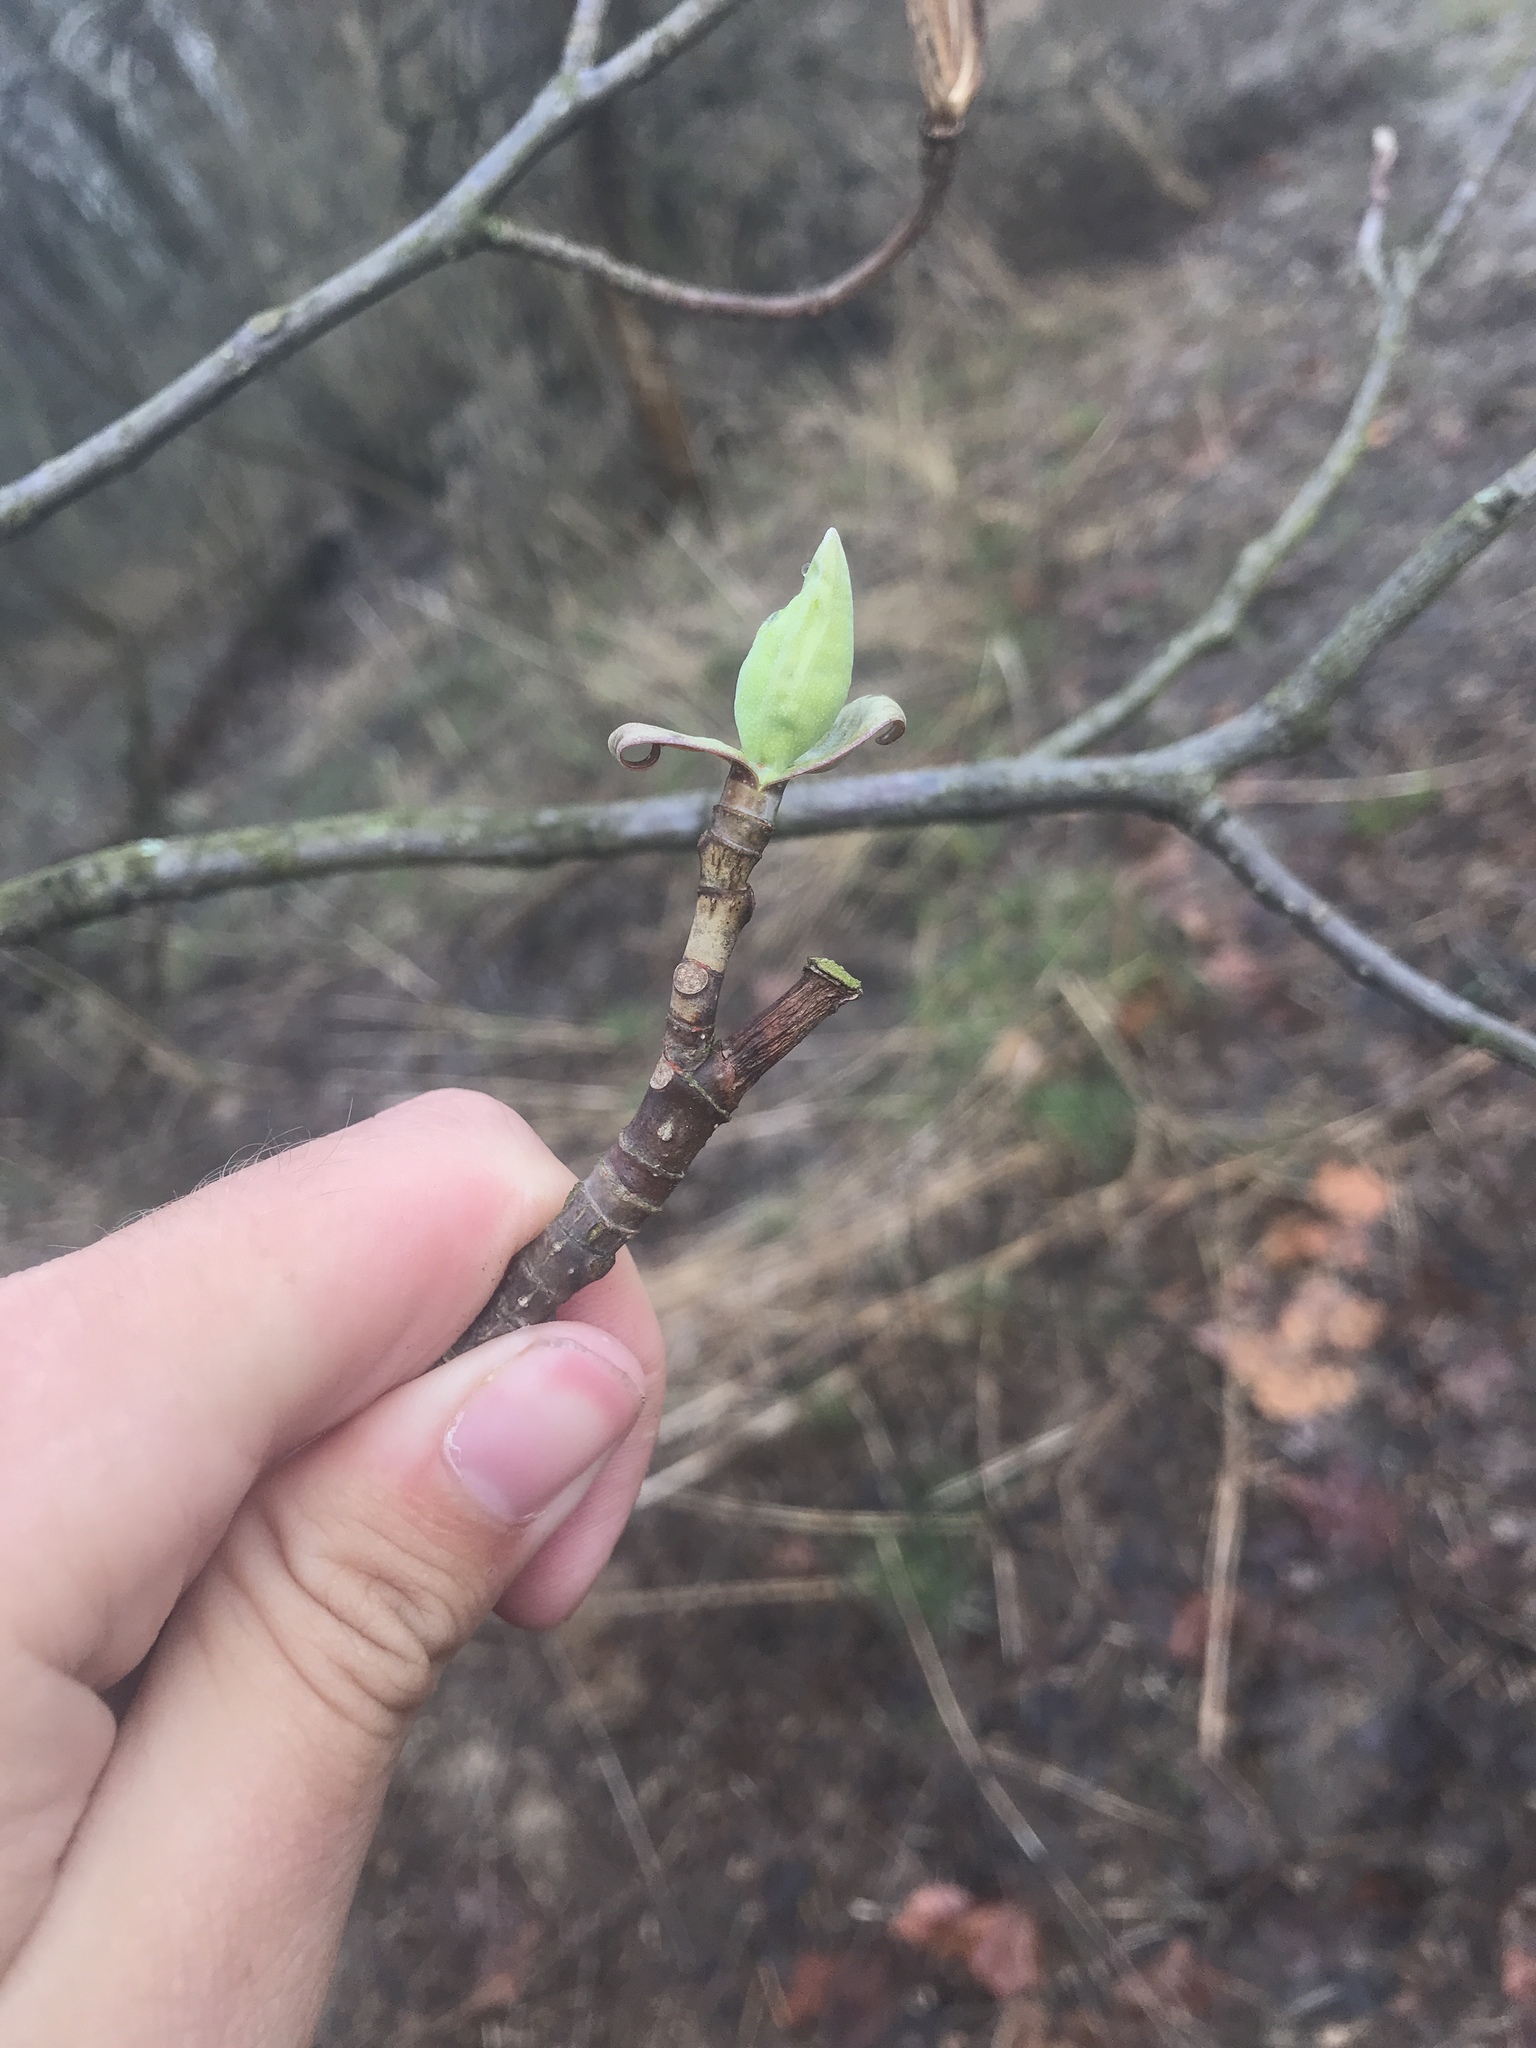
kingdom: Plantae
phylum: Tracheophyta
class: Magnoliopsida
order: Magnoliales
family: Magnoliaceae
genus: Liriodendron
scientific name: Liriodendron tulipifera
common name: Tulip tree
